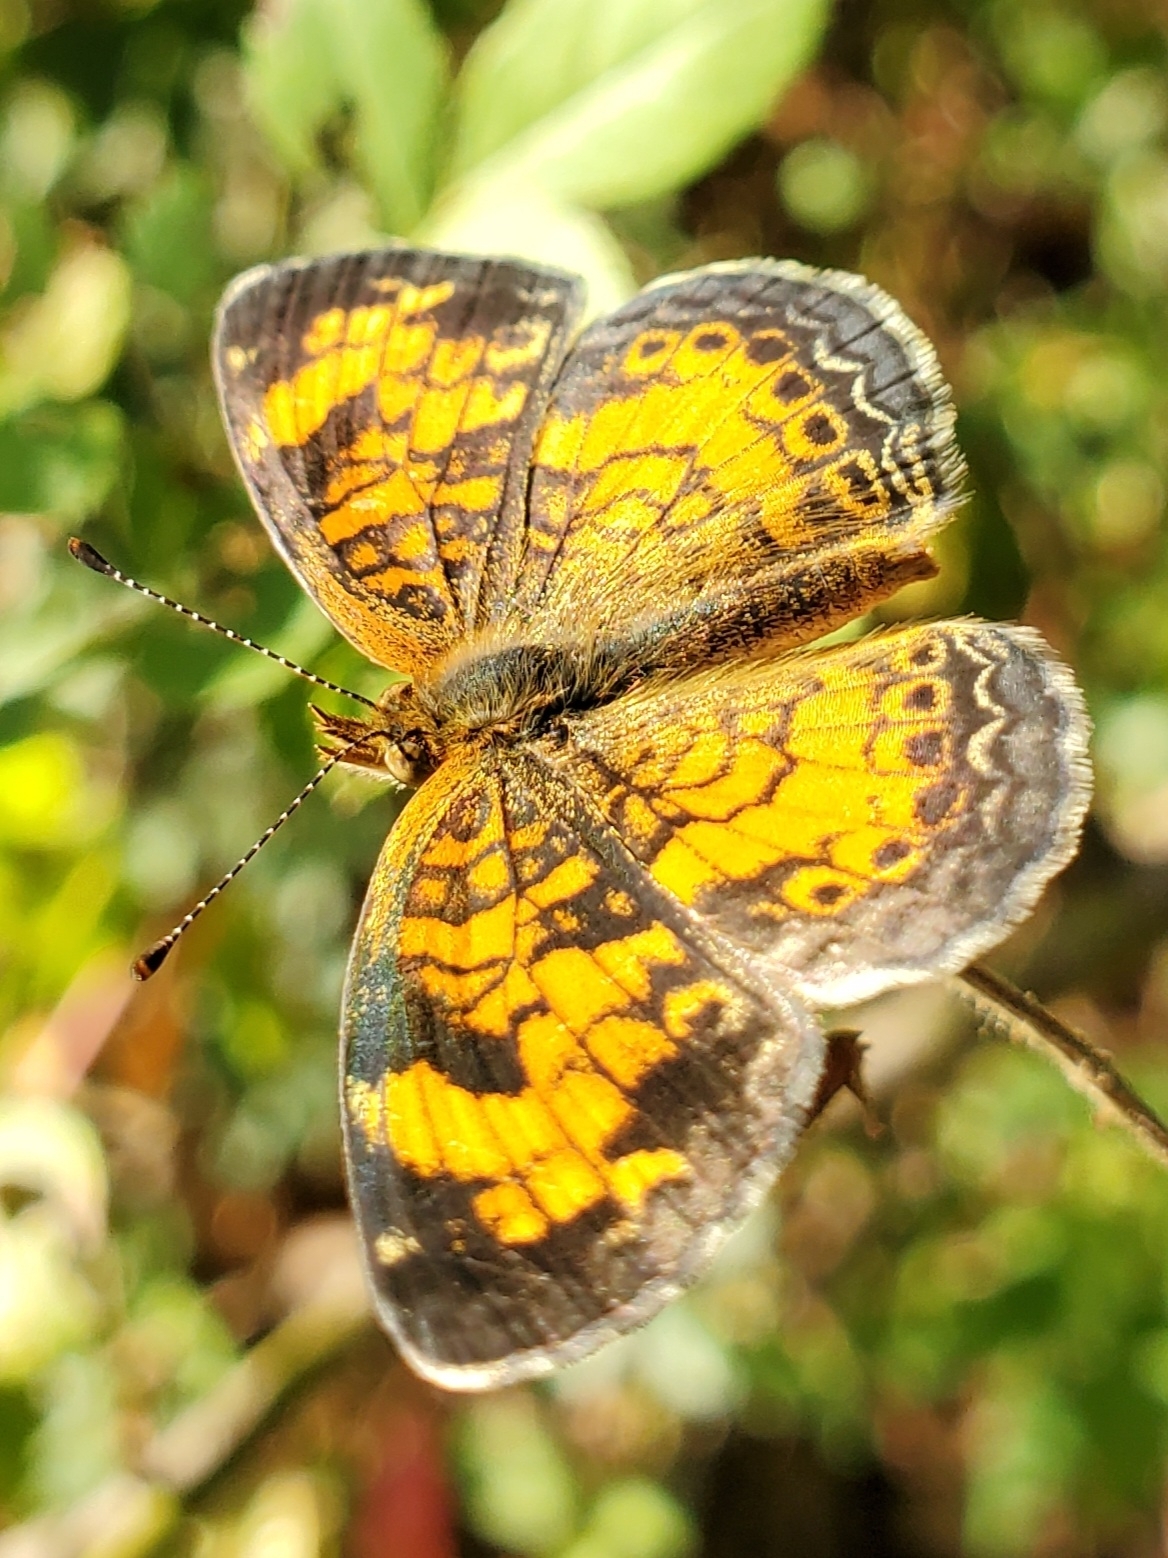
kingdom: Animalia
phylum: Arthropoda
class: Insecta
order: Lepidoptera
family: Nymphalidae
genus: Phyciodes
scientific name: Phyciodes tharos
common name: Pearl crescent
